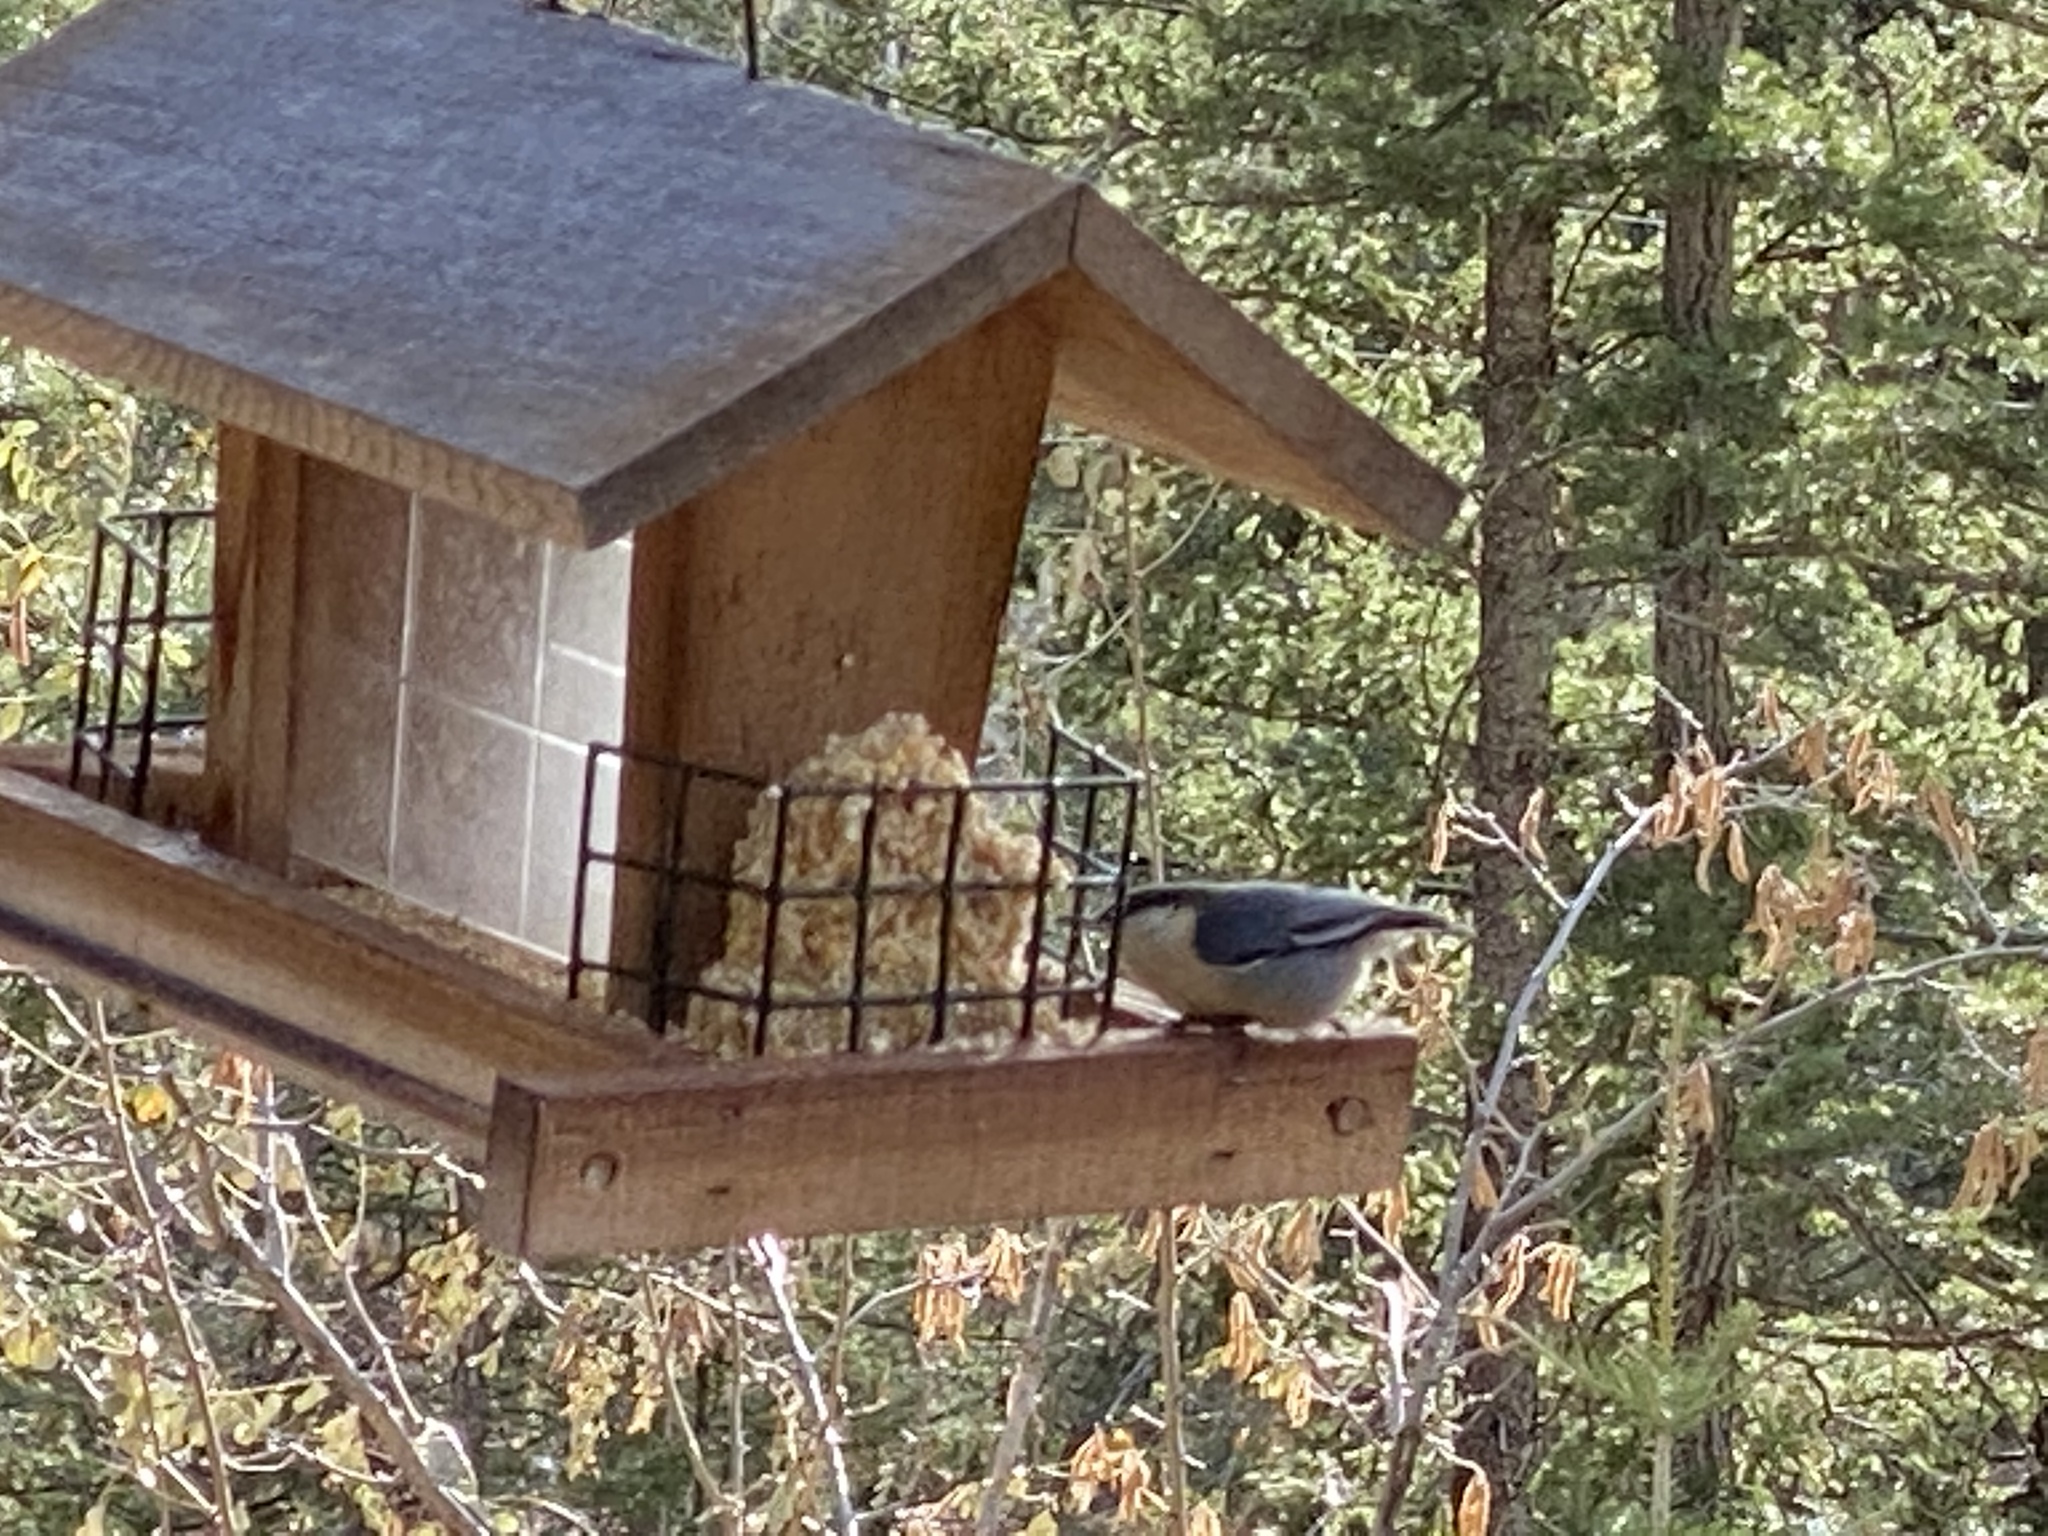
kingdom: Animalia
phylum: Chordata
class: Aves
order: Passeriformes
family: Sittidae
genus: Sitta
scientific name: Sitta pygmaea
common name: Pygmy nuthatch
